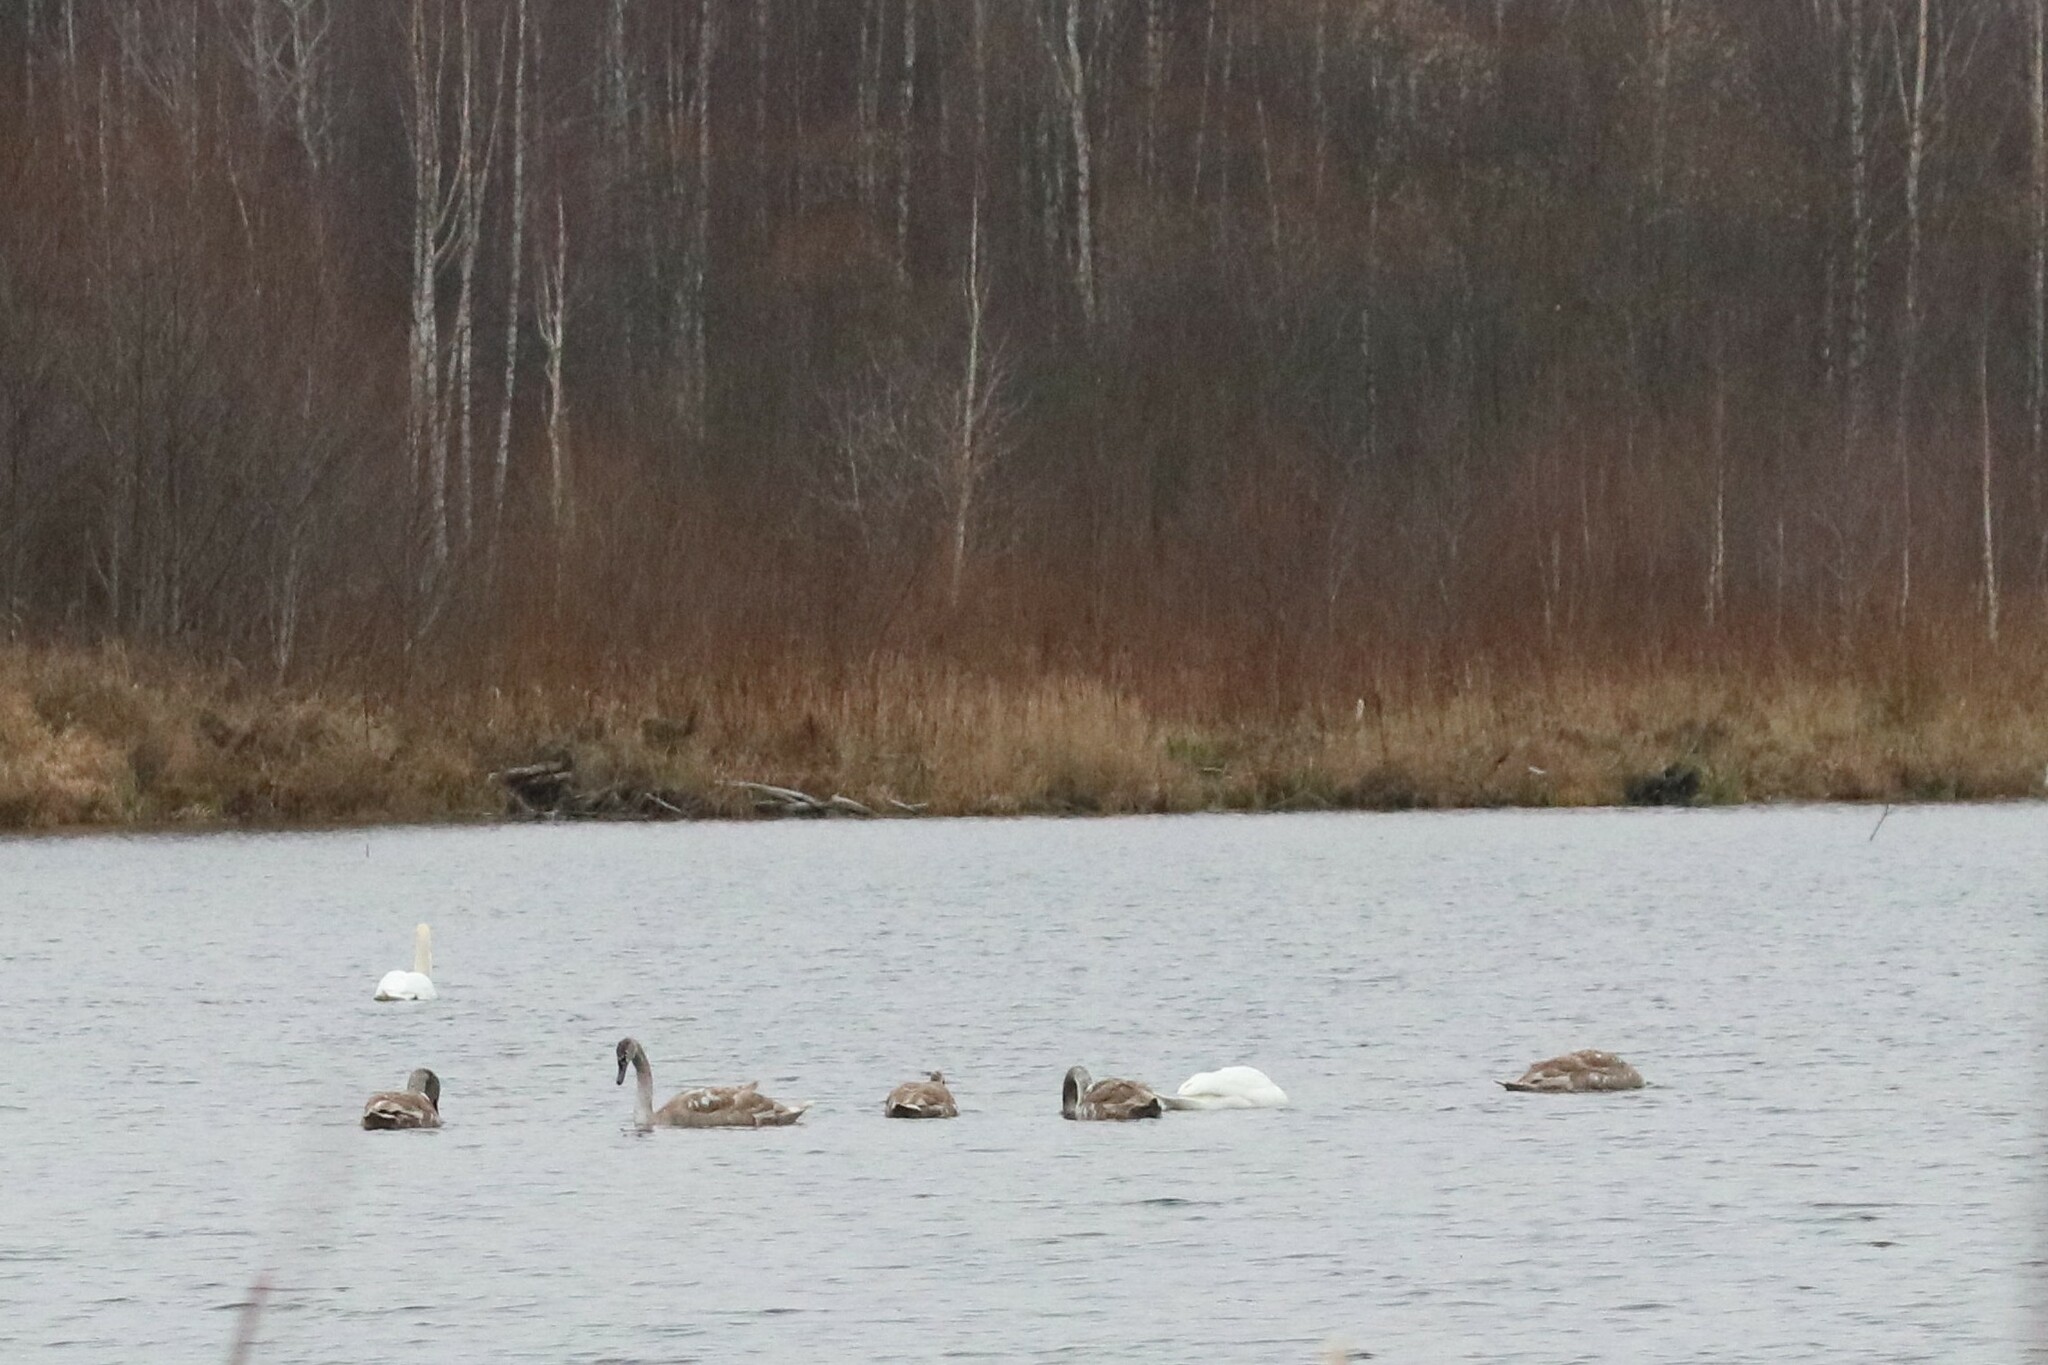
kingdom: Animalia
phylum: Chordata
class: Aves
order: Anseriformes
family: Anatidae
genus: Cygnus
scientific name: Cygnus olor
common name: Mute swan
